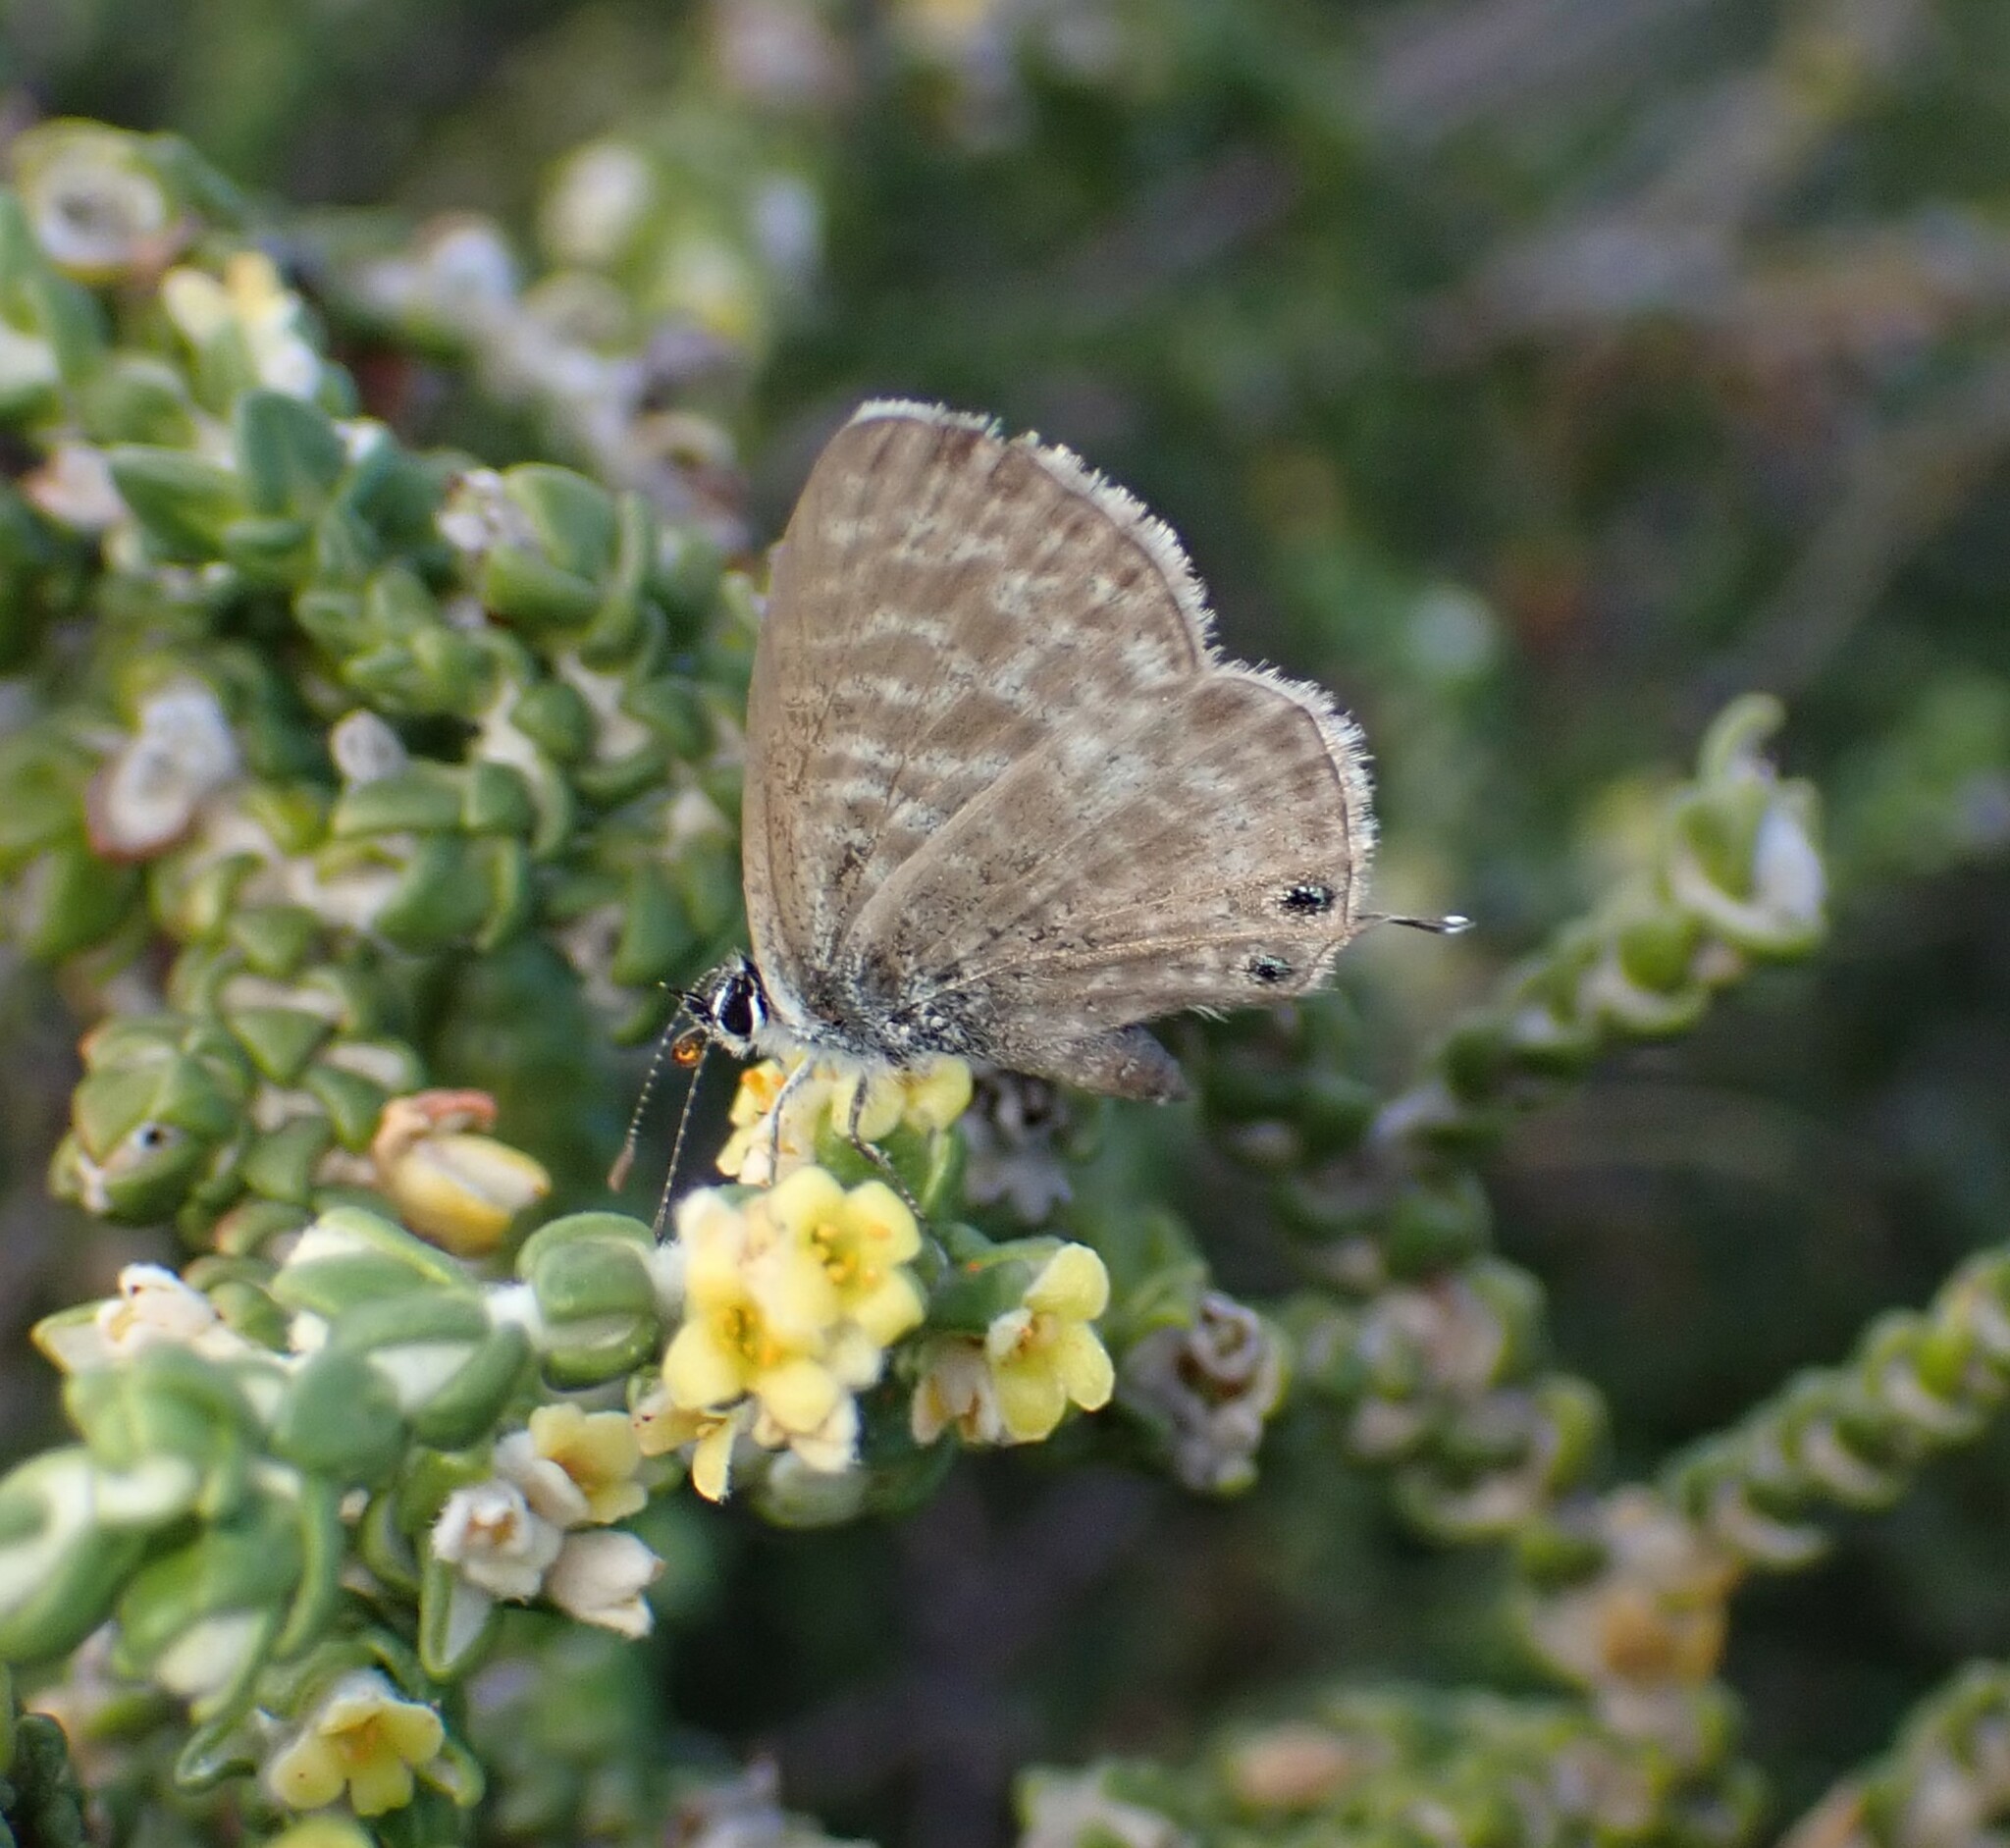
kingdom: Animalia
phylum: Arthropoda
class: Insecta
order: Lepidoptera
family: Lycaenidae
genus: Leptotes
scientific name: Leptotes pirithous
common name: Lang's short-tailed blue
